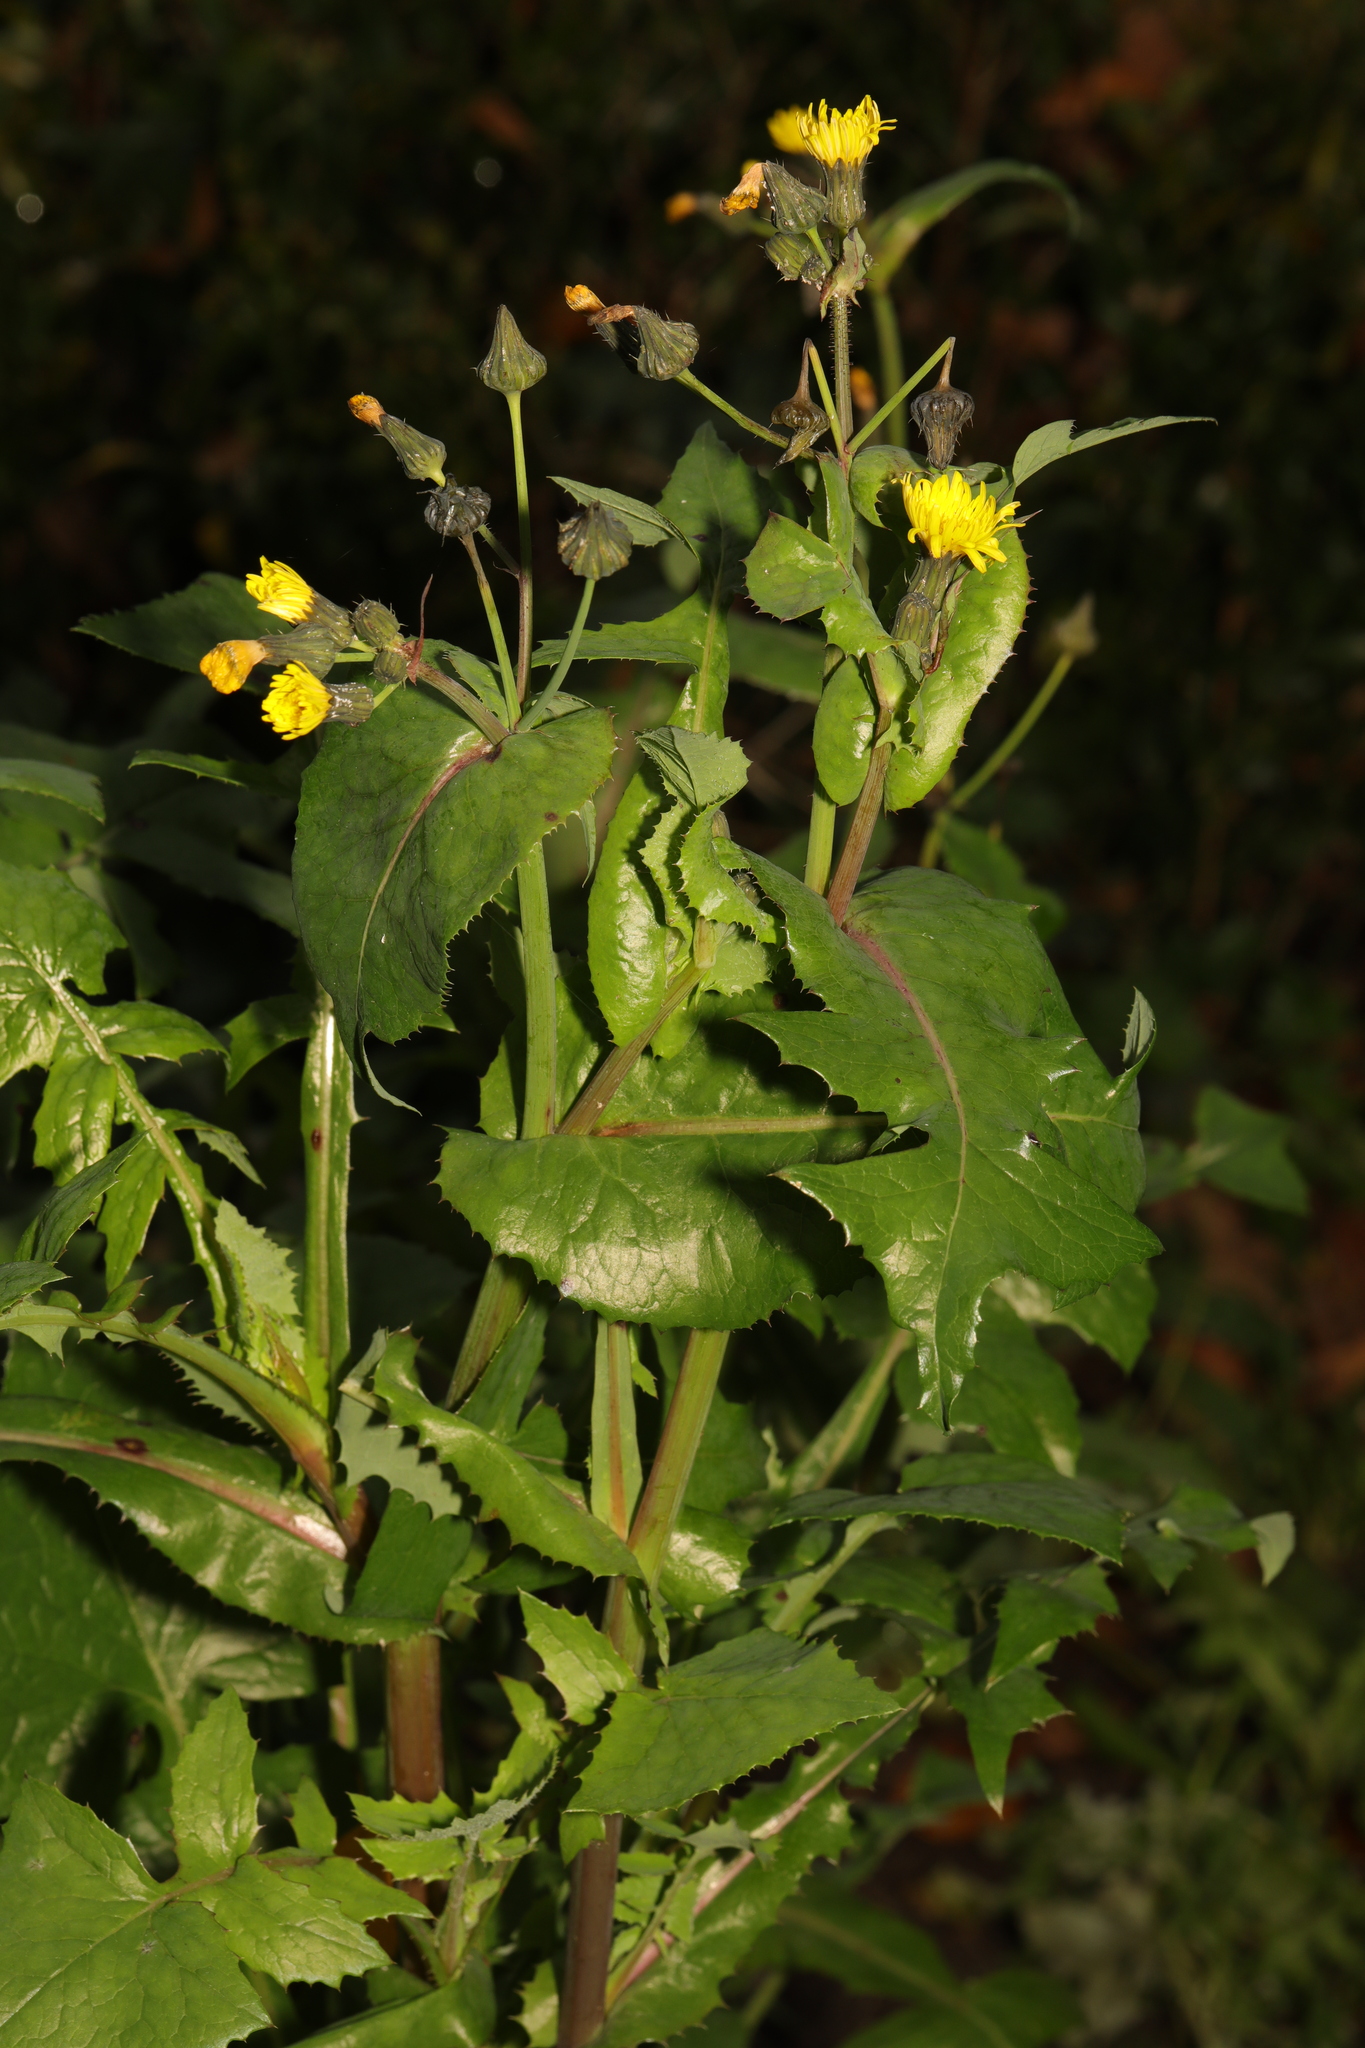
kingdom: Plantae
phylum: Tracheophyta
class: Magnoliopsida
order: Asterales
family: Asteraceae
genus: Sonchus
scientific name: Sonchus oleraceus
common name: Common sowthistle
